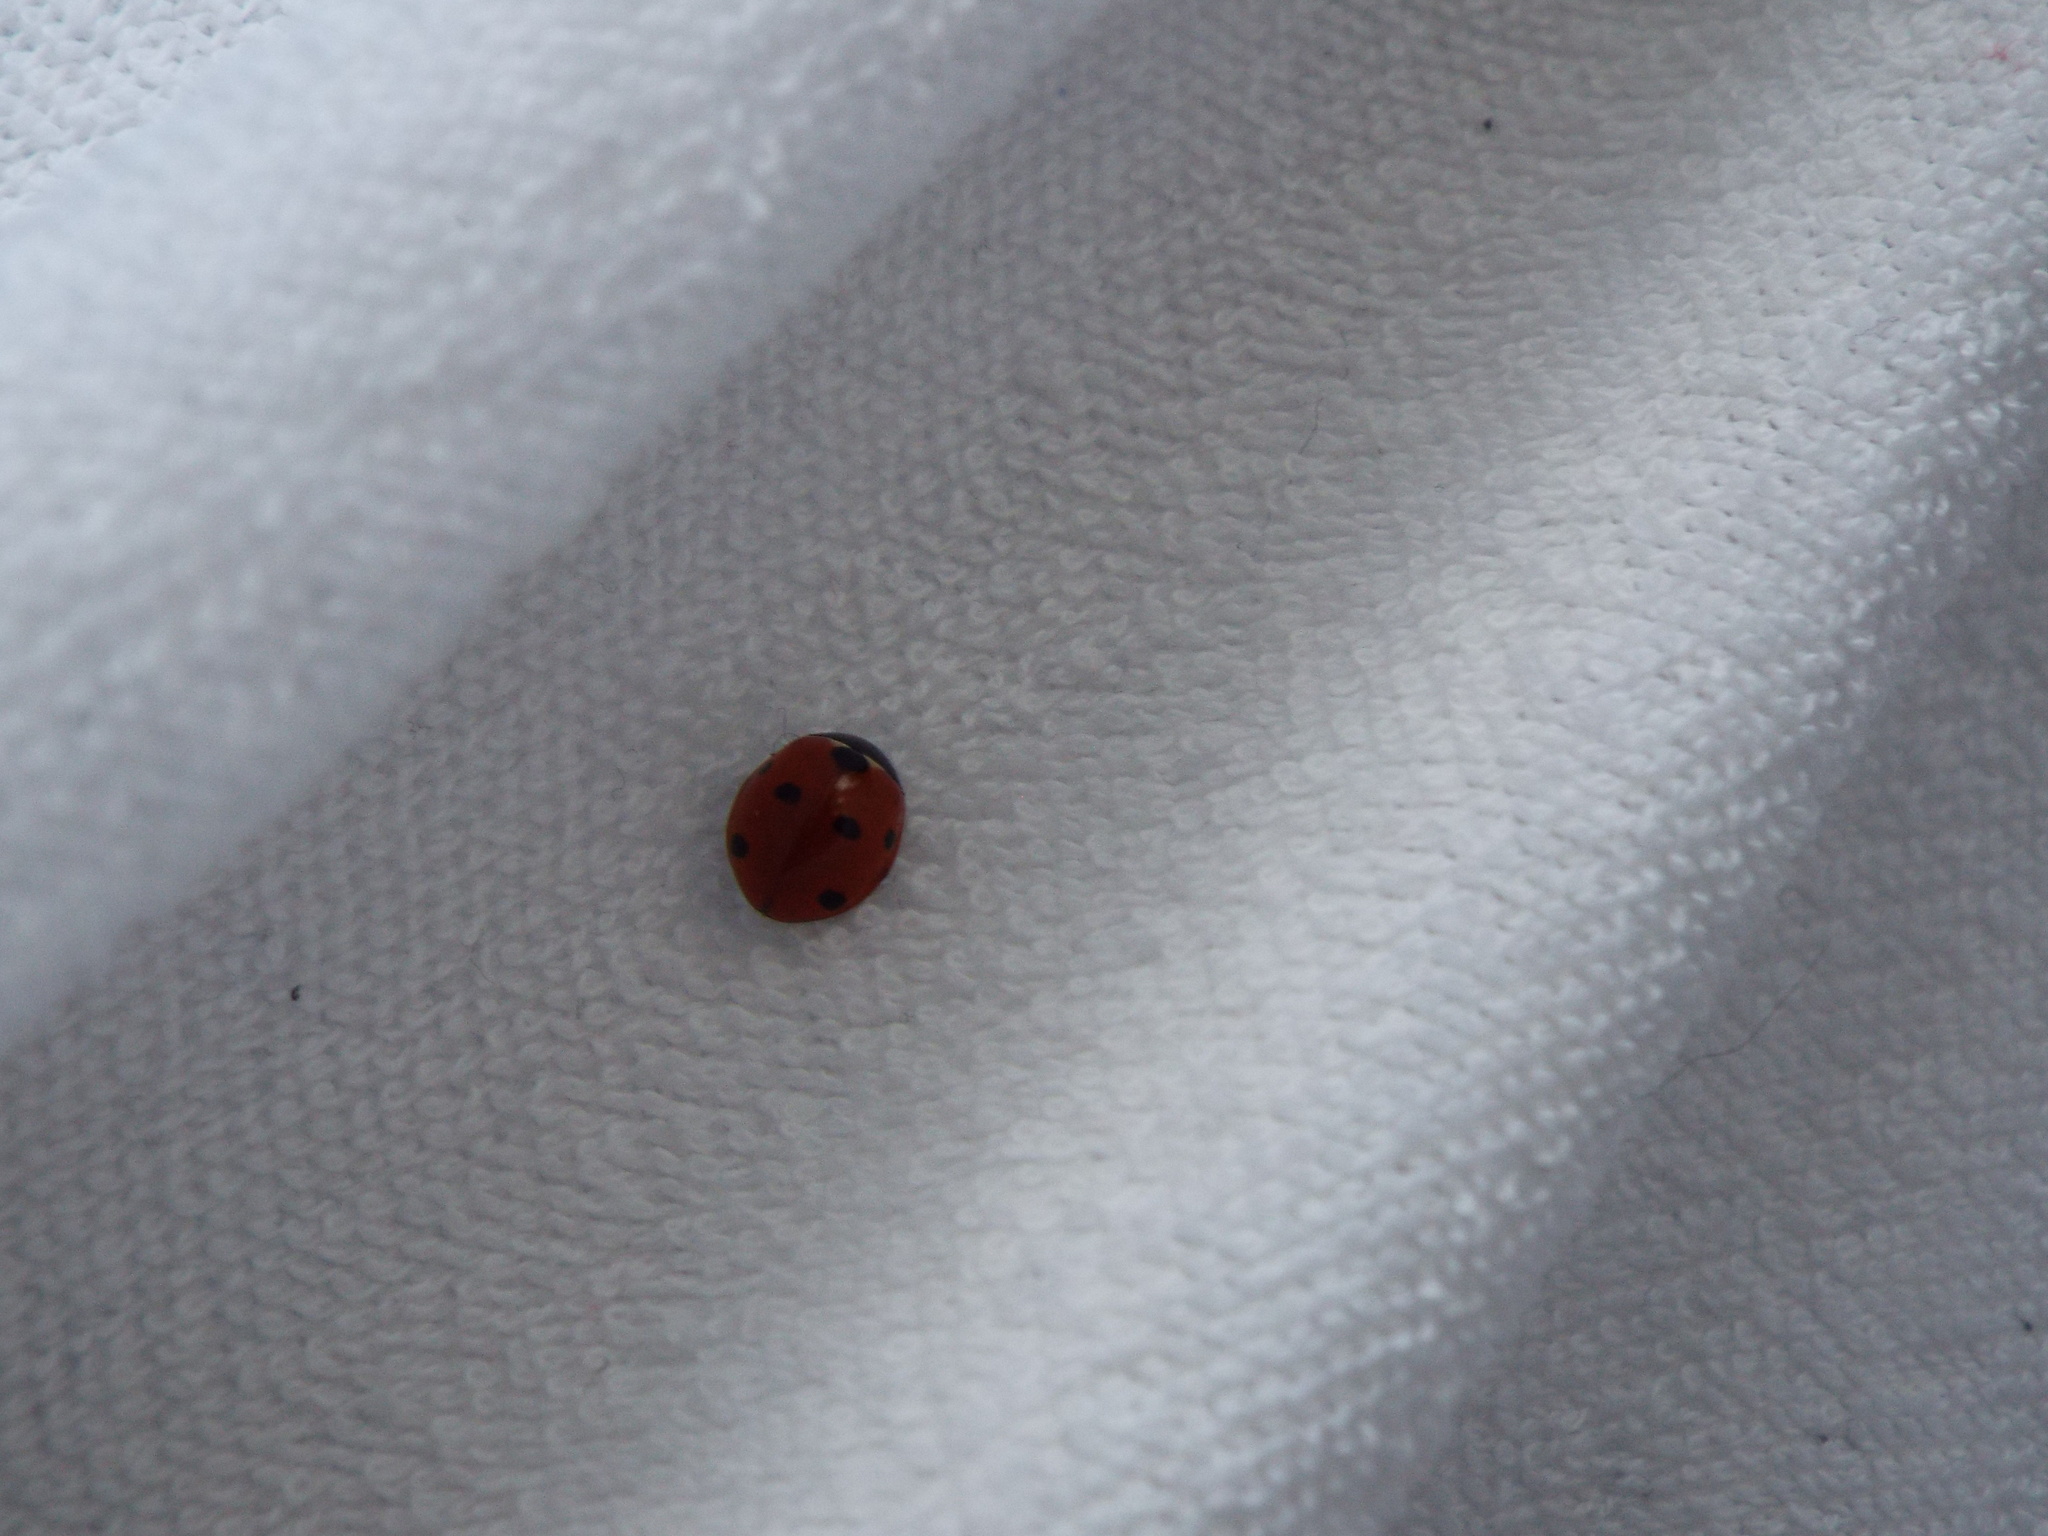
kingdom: Animalia
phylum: Arthropoda
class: Insecta
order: Coleoptera
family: Coccinellidae
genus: Coccinella
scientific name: Coccinella septempunctata
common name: Sevenspotted lady beetle
